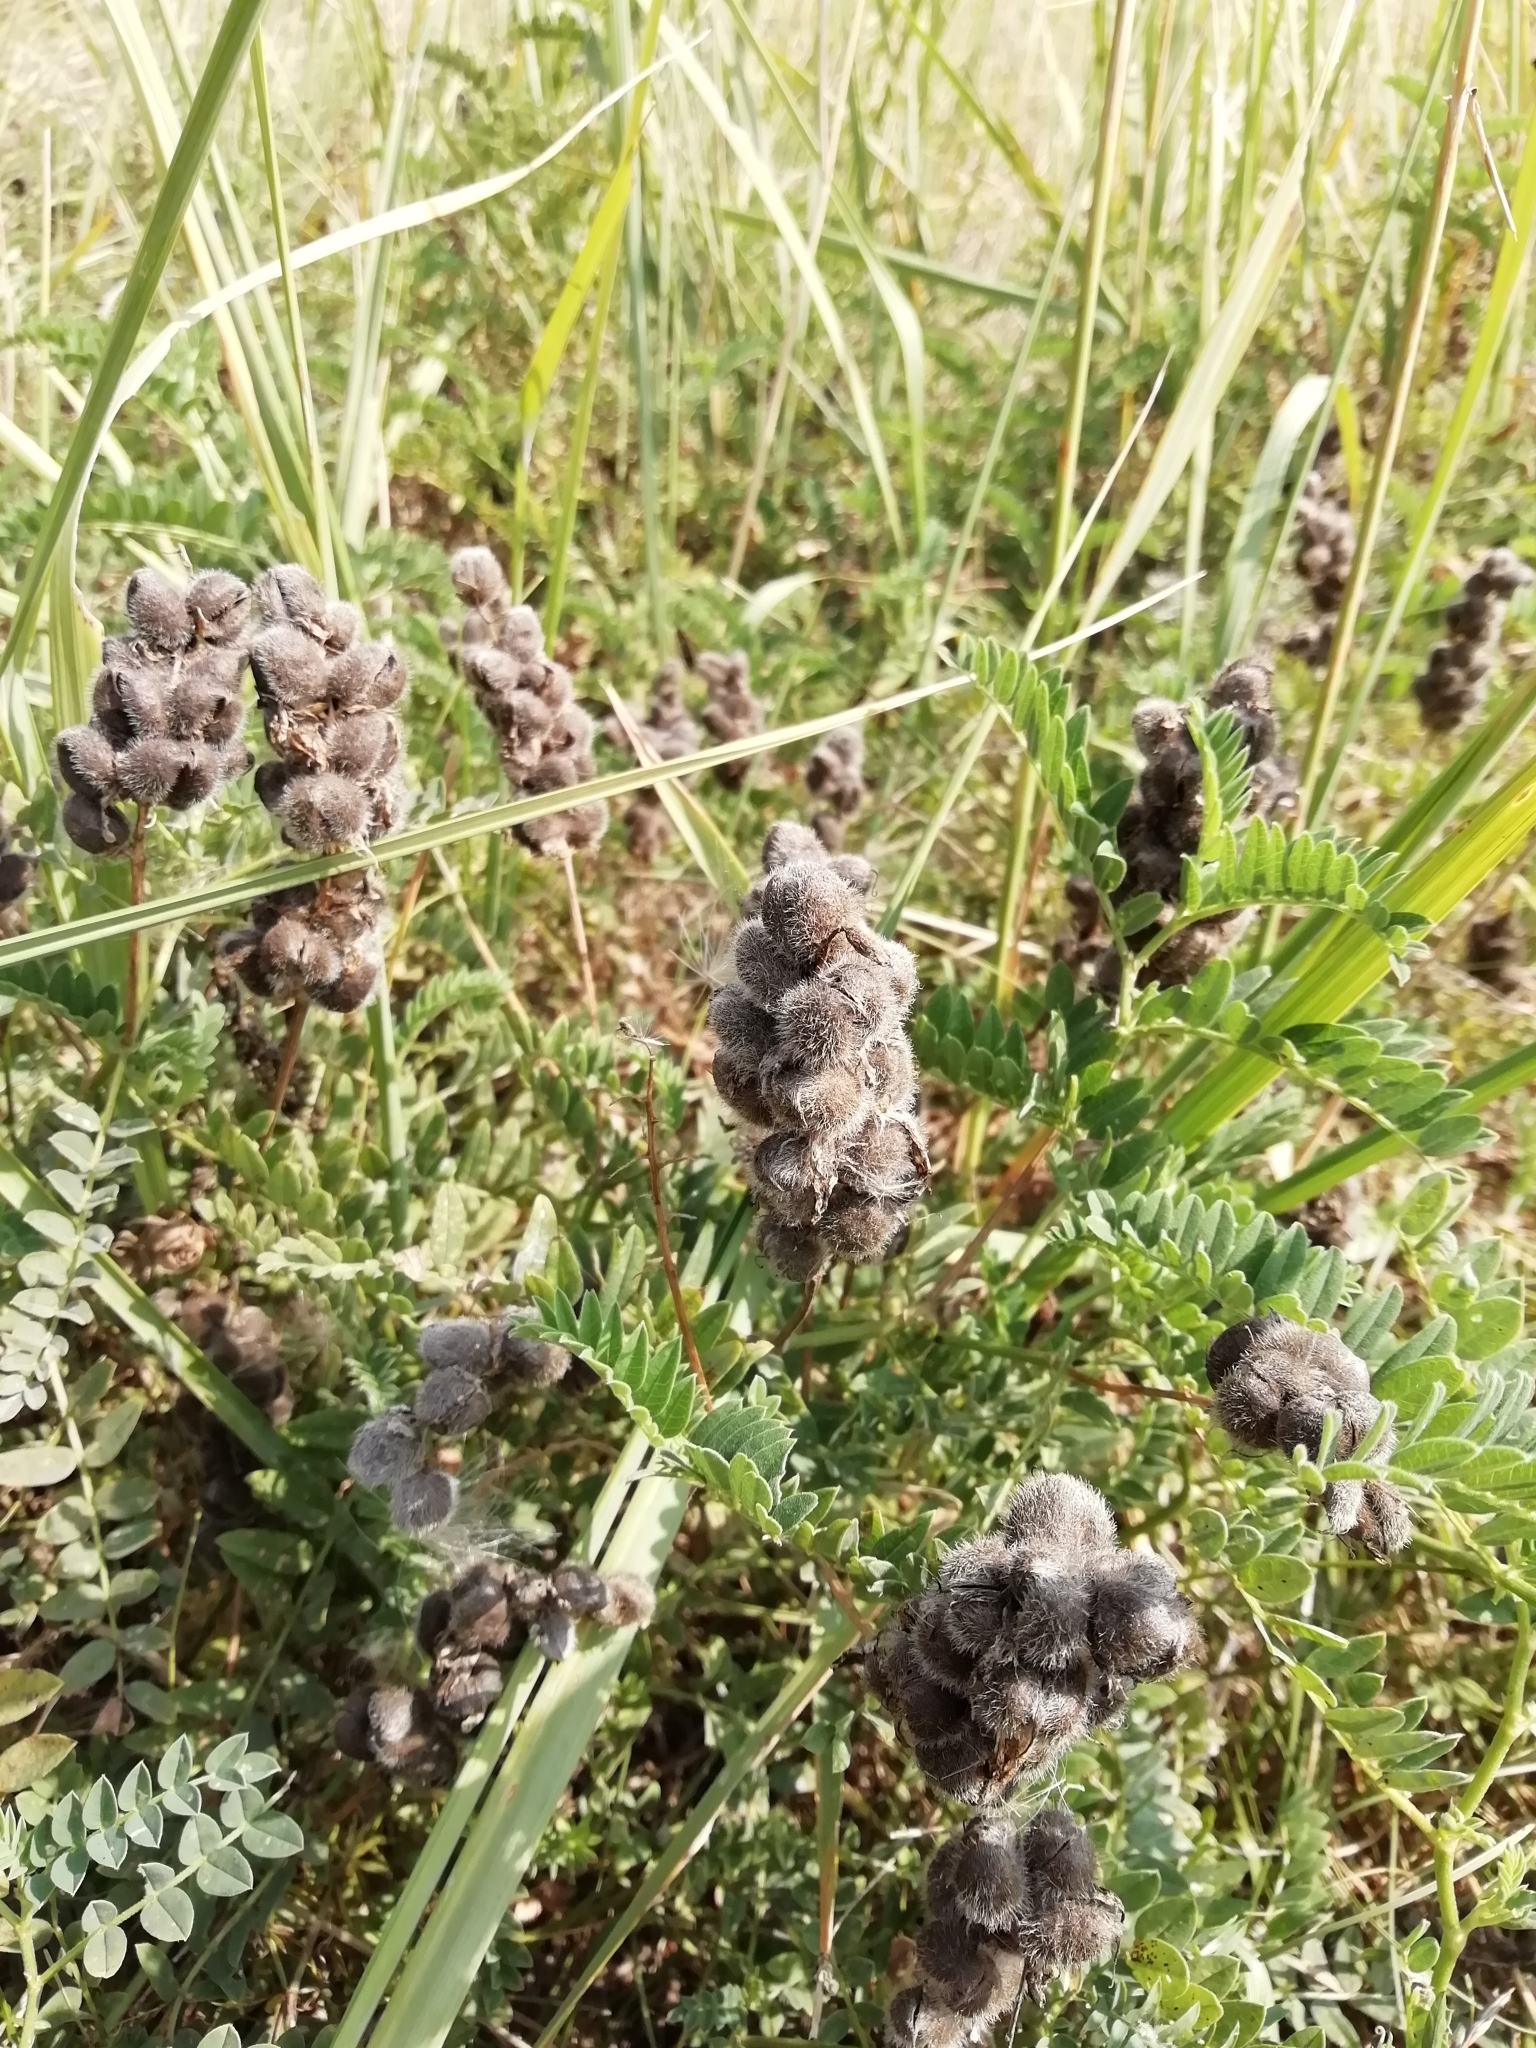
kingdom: Plantae
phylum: Tracheophyta
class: Magnoliopsida
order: Fabales
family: Fabaceae
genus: Astragalus
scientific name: Astragalus cicer
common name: Chick-pea milk-vetch
